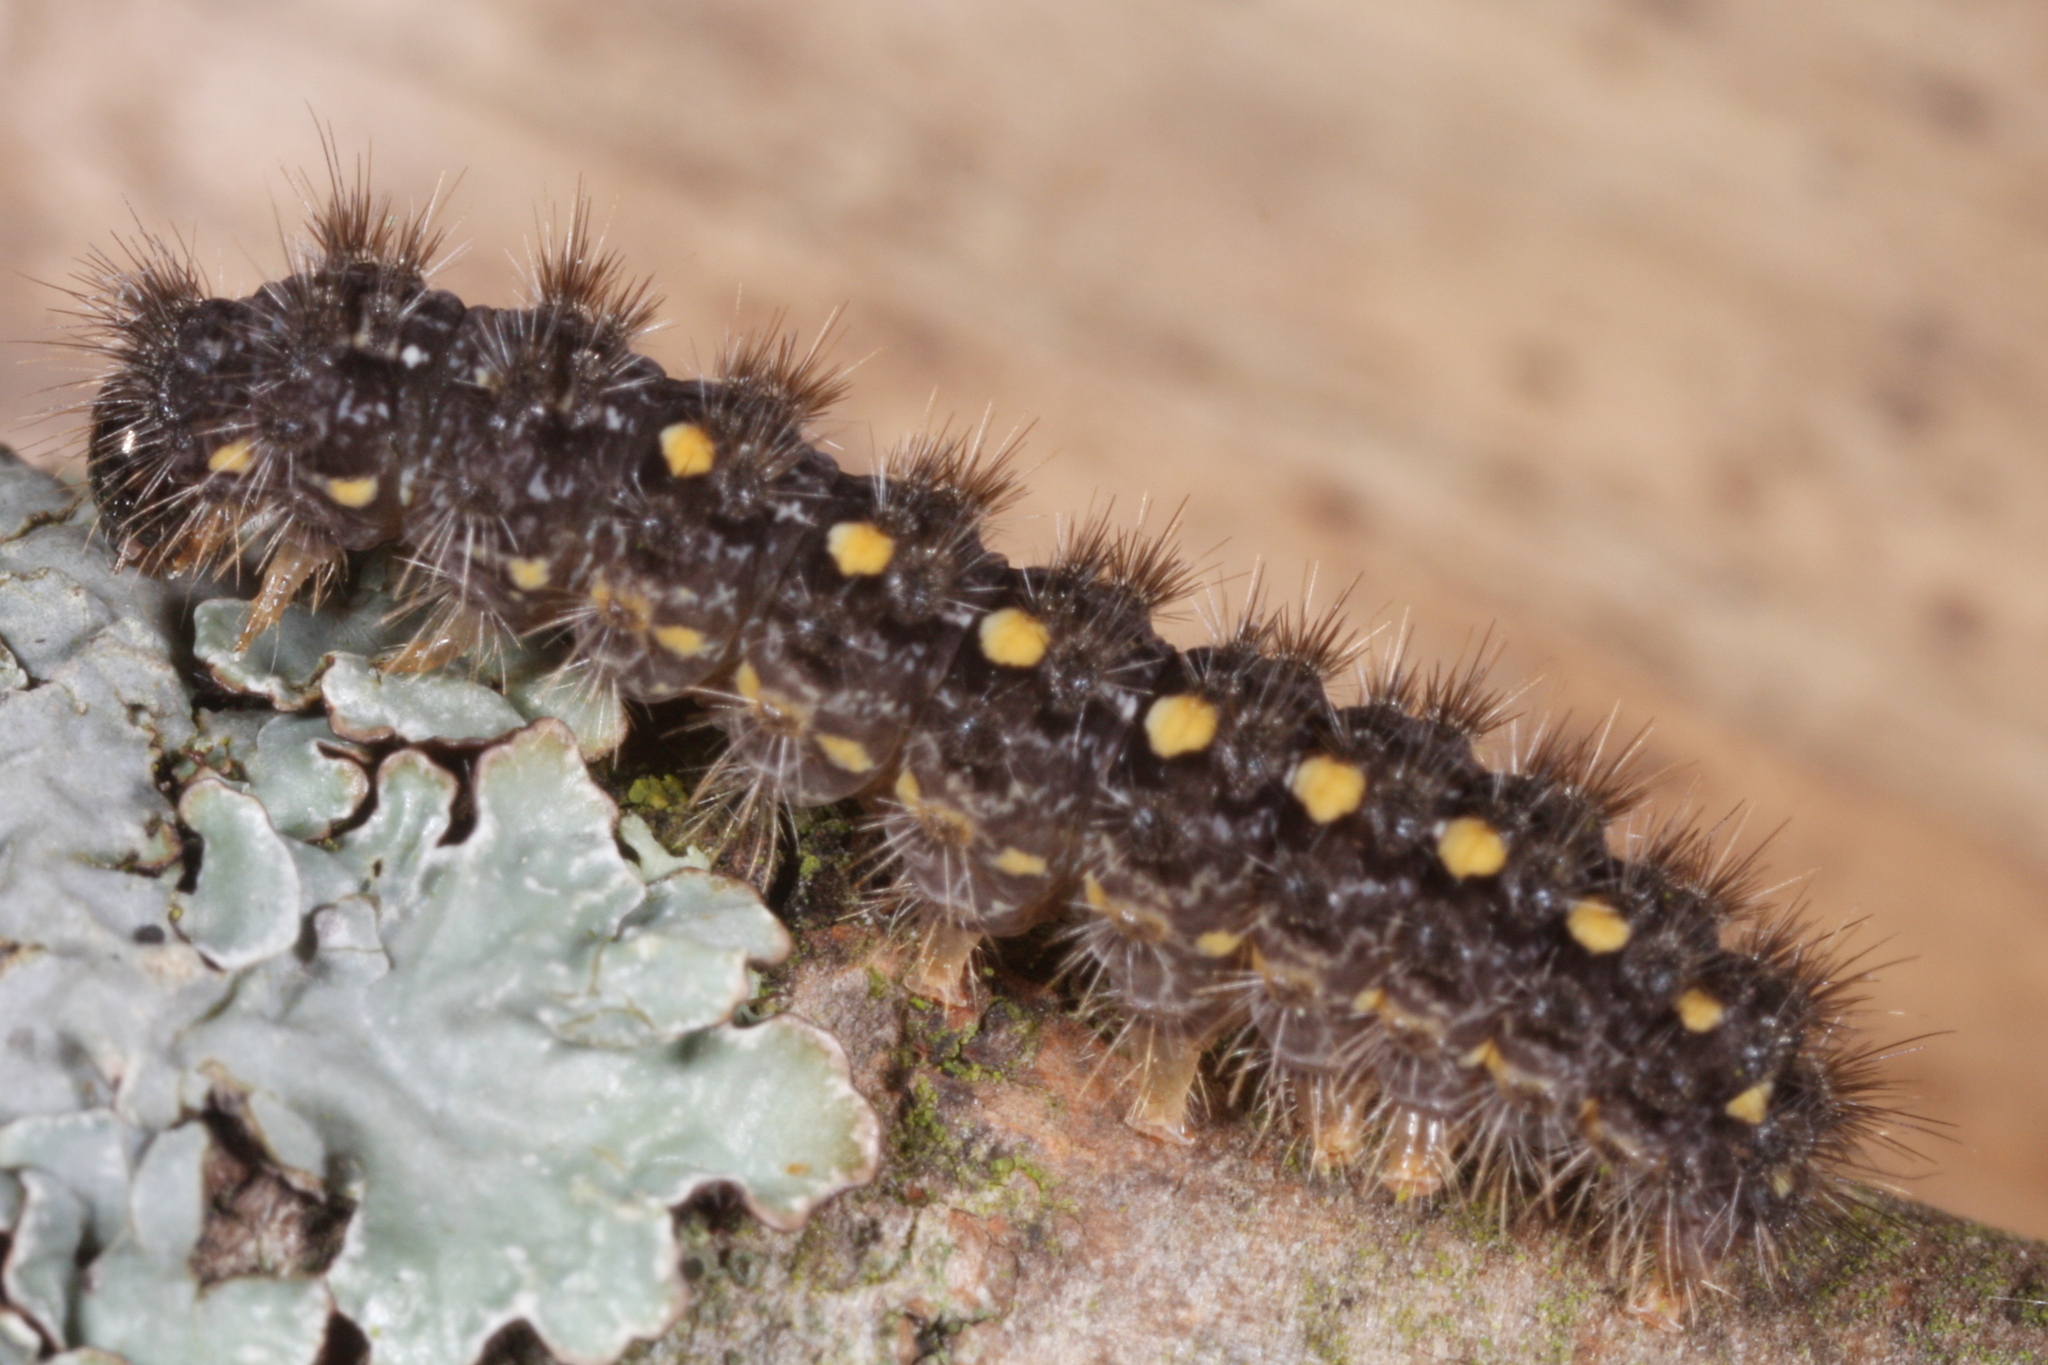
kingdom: Animalia
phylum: Arthropoda
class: Insecta
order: Lepidoptera
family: Erebidae
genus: Manulea
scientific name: Manulea complana
